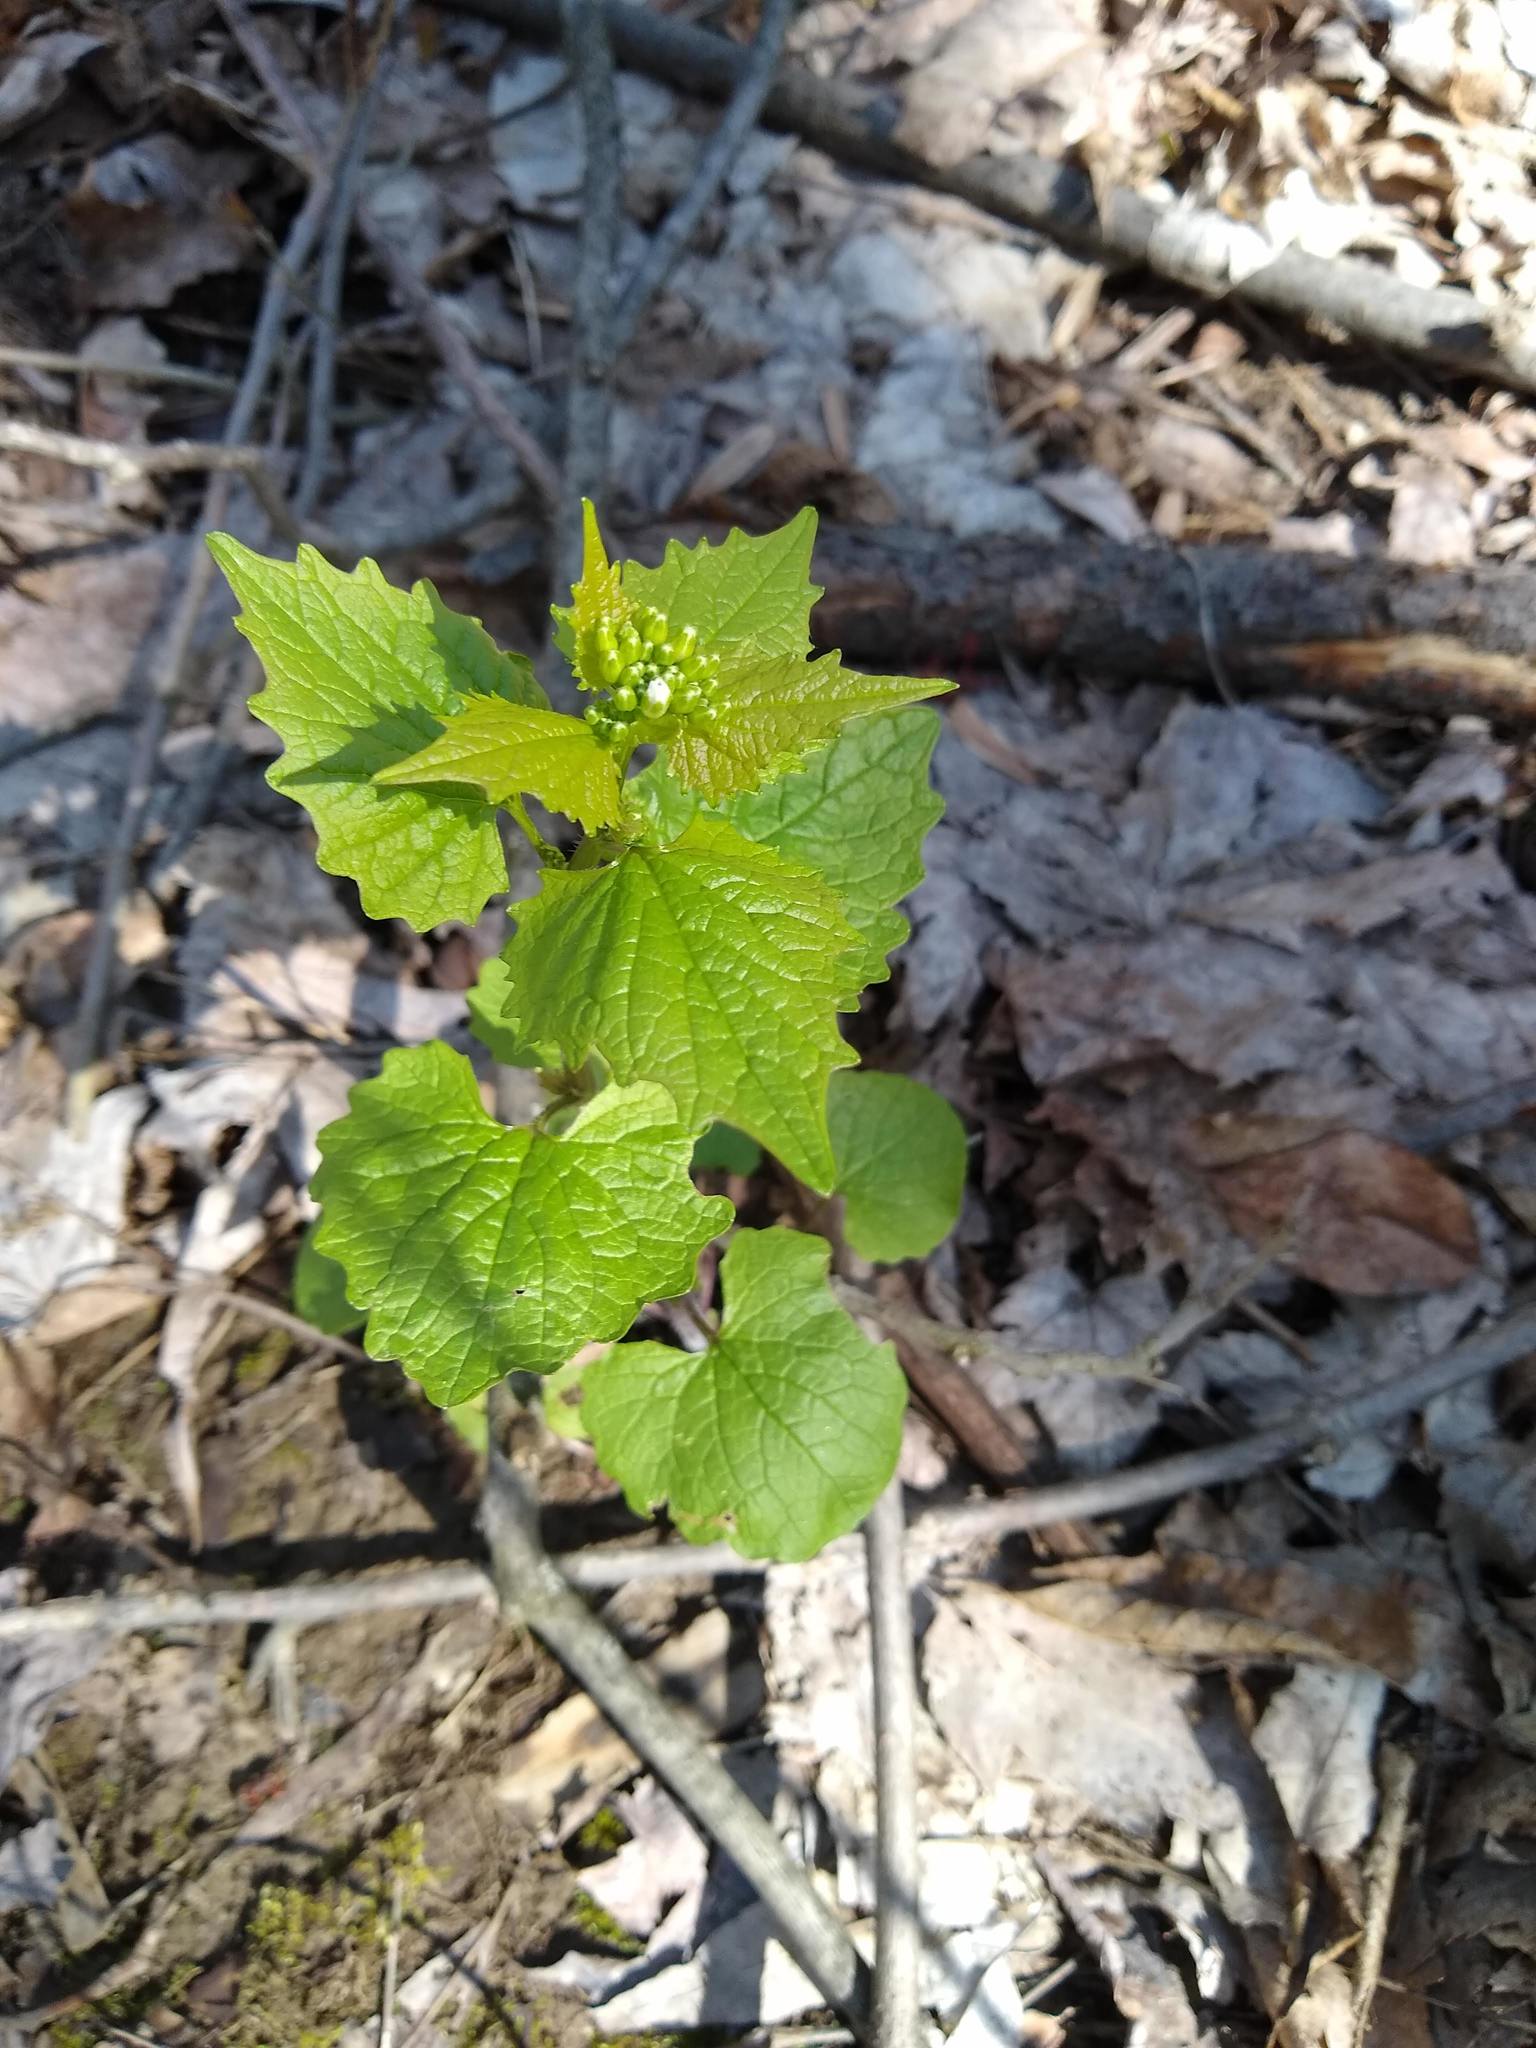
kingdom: Plantae
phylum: Tracheophyta
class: Magnoliopsida
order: Brassicales
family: Brassicaceae
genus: Alliaria
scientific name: Alliaria petiolata
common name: Garlic mustard
